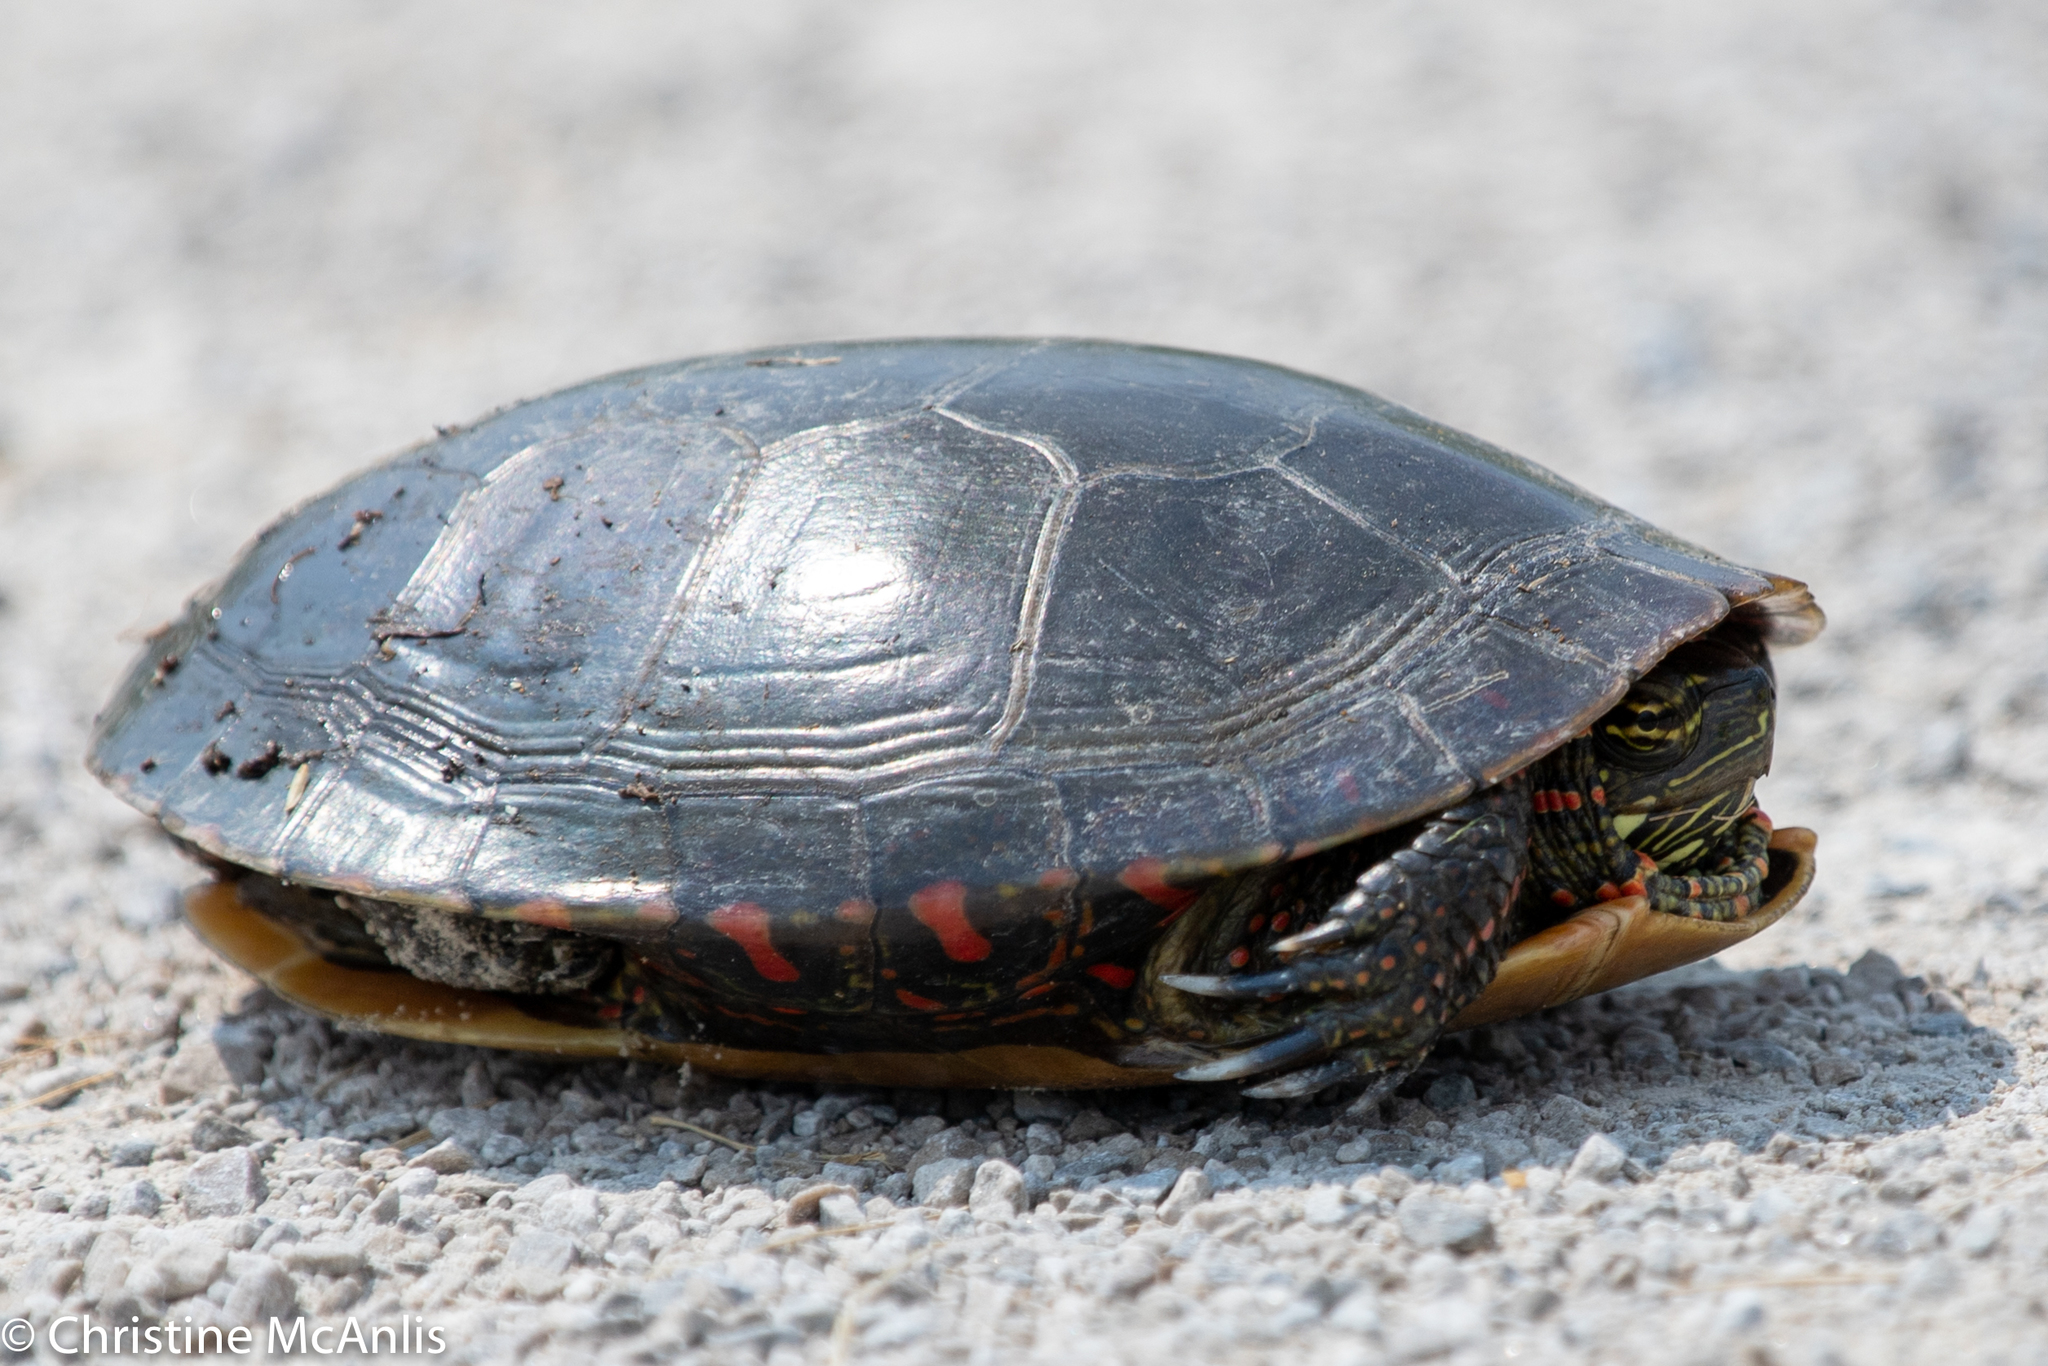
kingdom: Animalia
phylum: Chordata
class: Testudines
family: Emydidae
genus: Chrysemys
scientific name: Chrysemys picta
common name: Painted turtle
